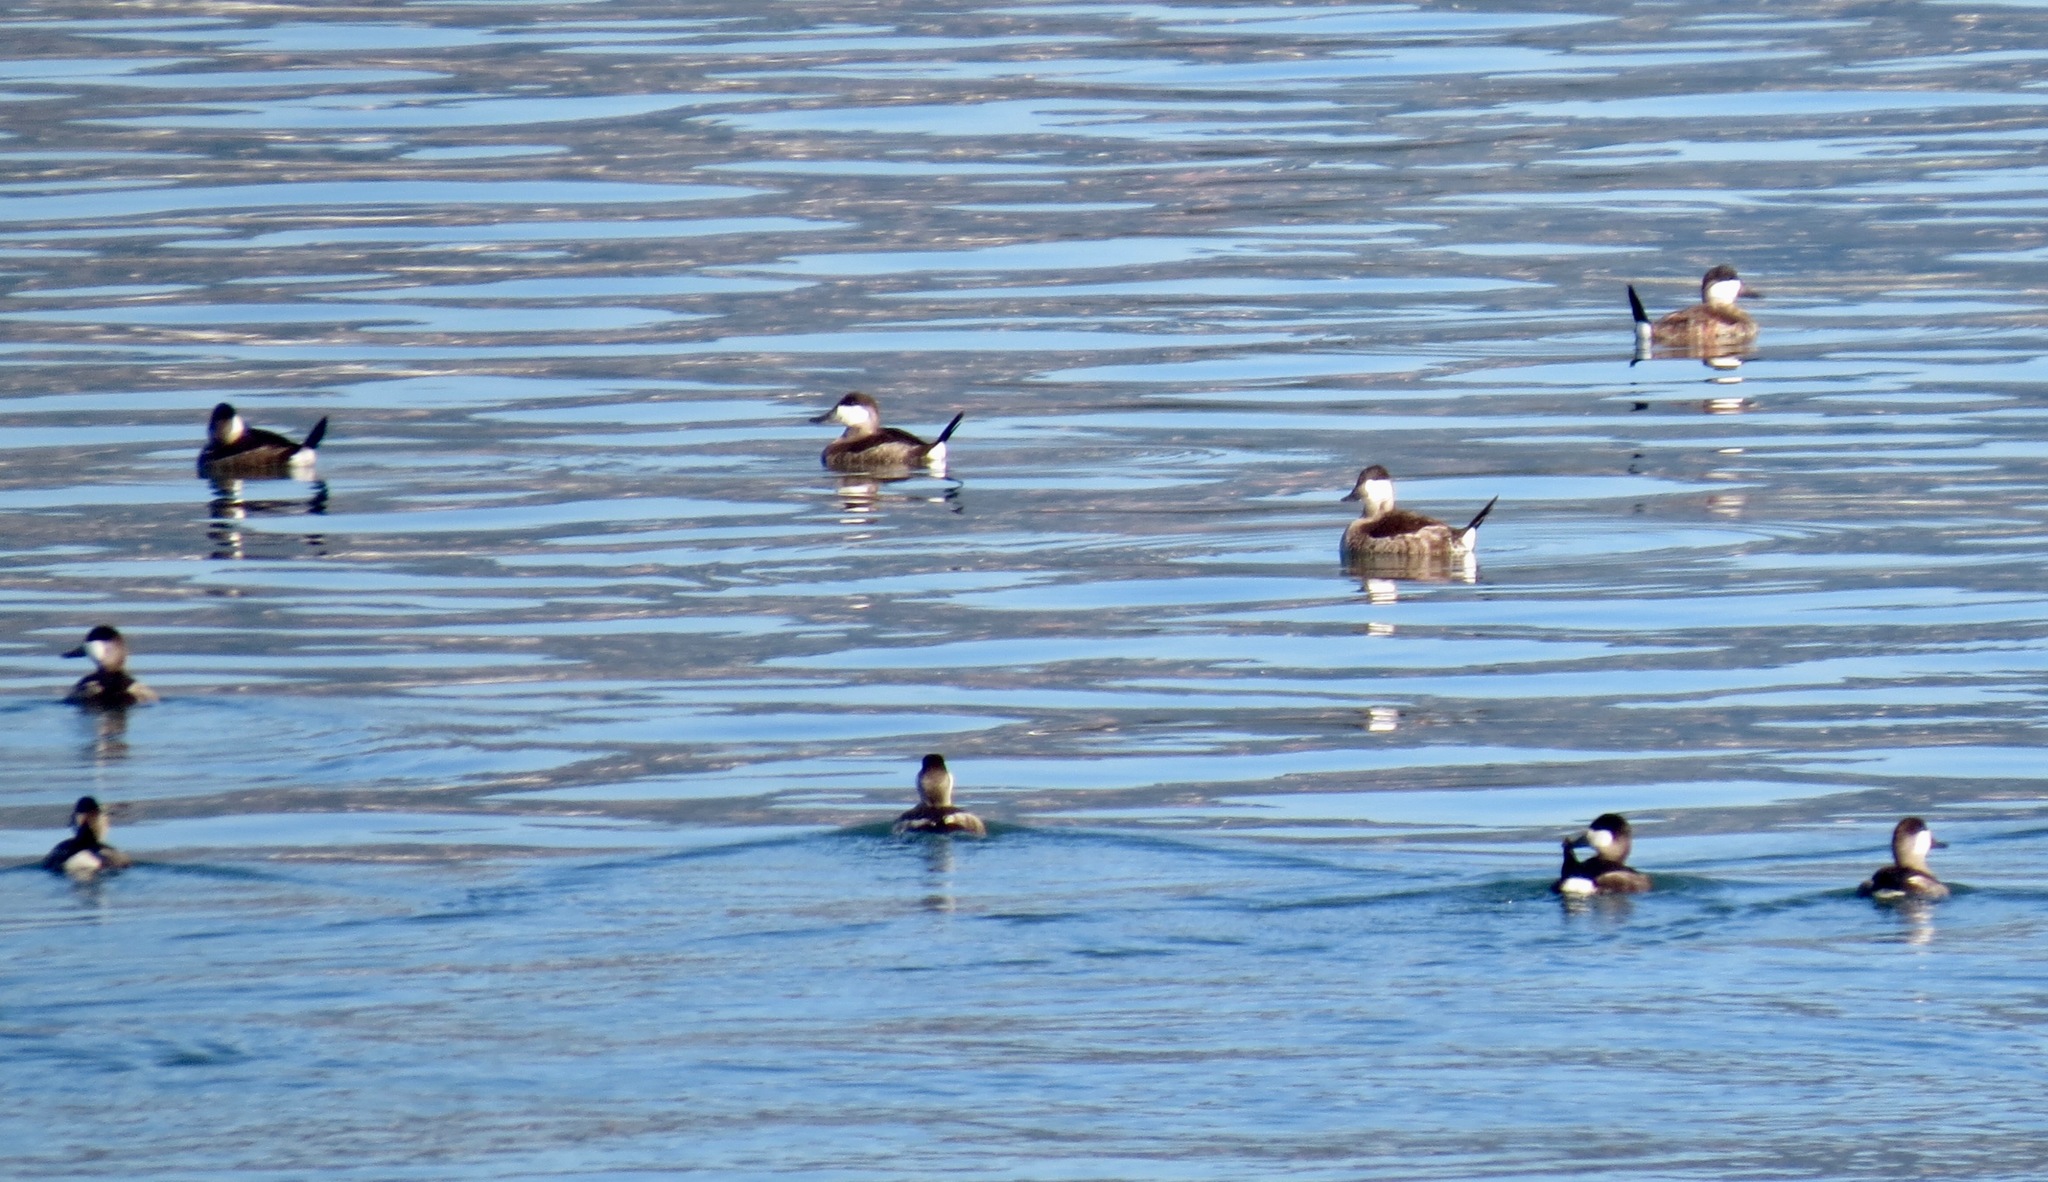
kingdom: Animalia
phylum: Chordata
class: Aves
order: Anseriformes
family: Anatidae
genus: Oxyura
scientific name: Oxyura jamaicensis
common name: Ruddy duck
